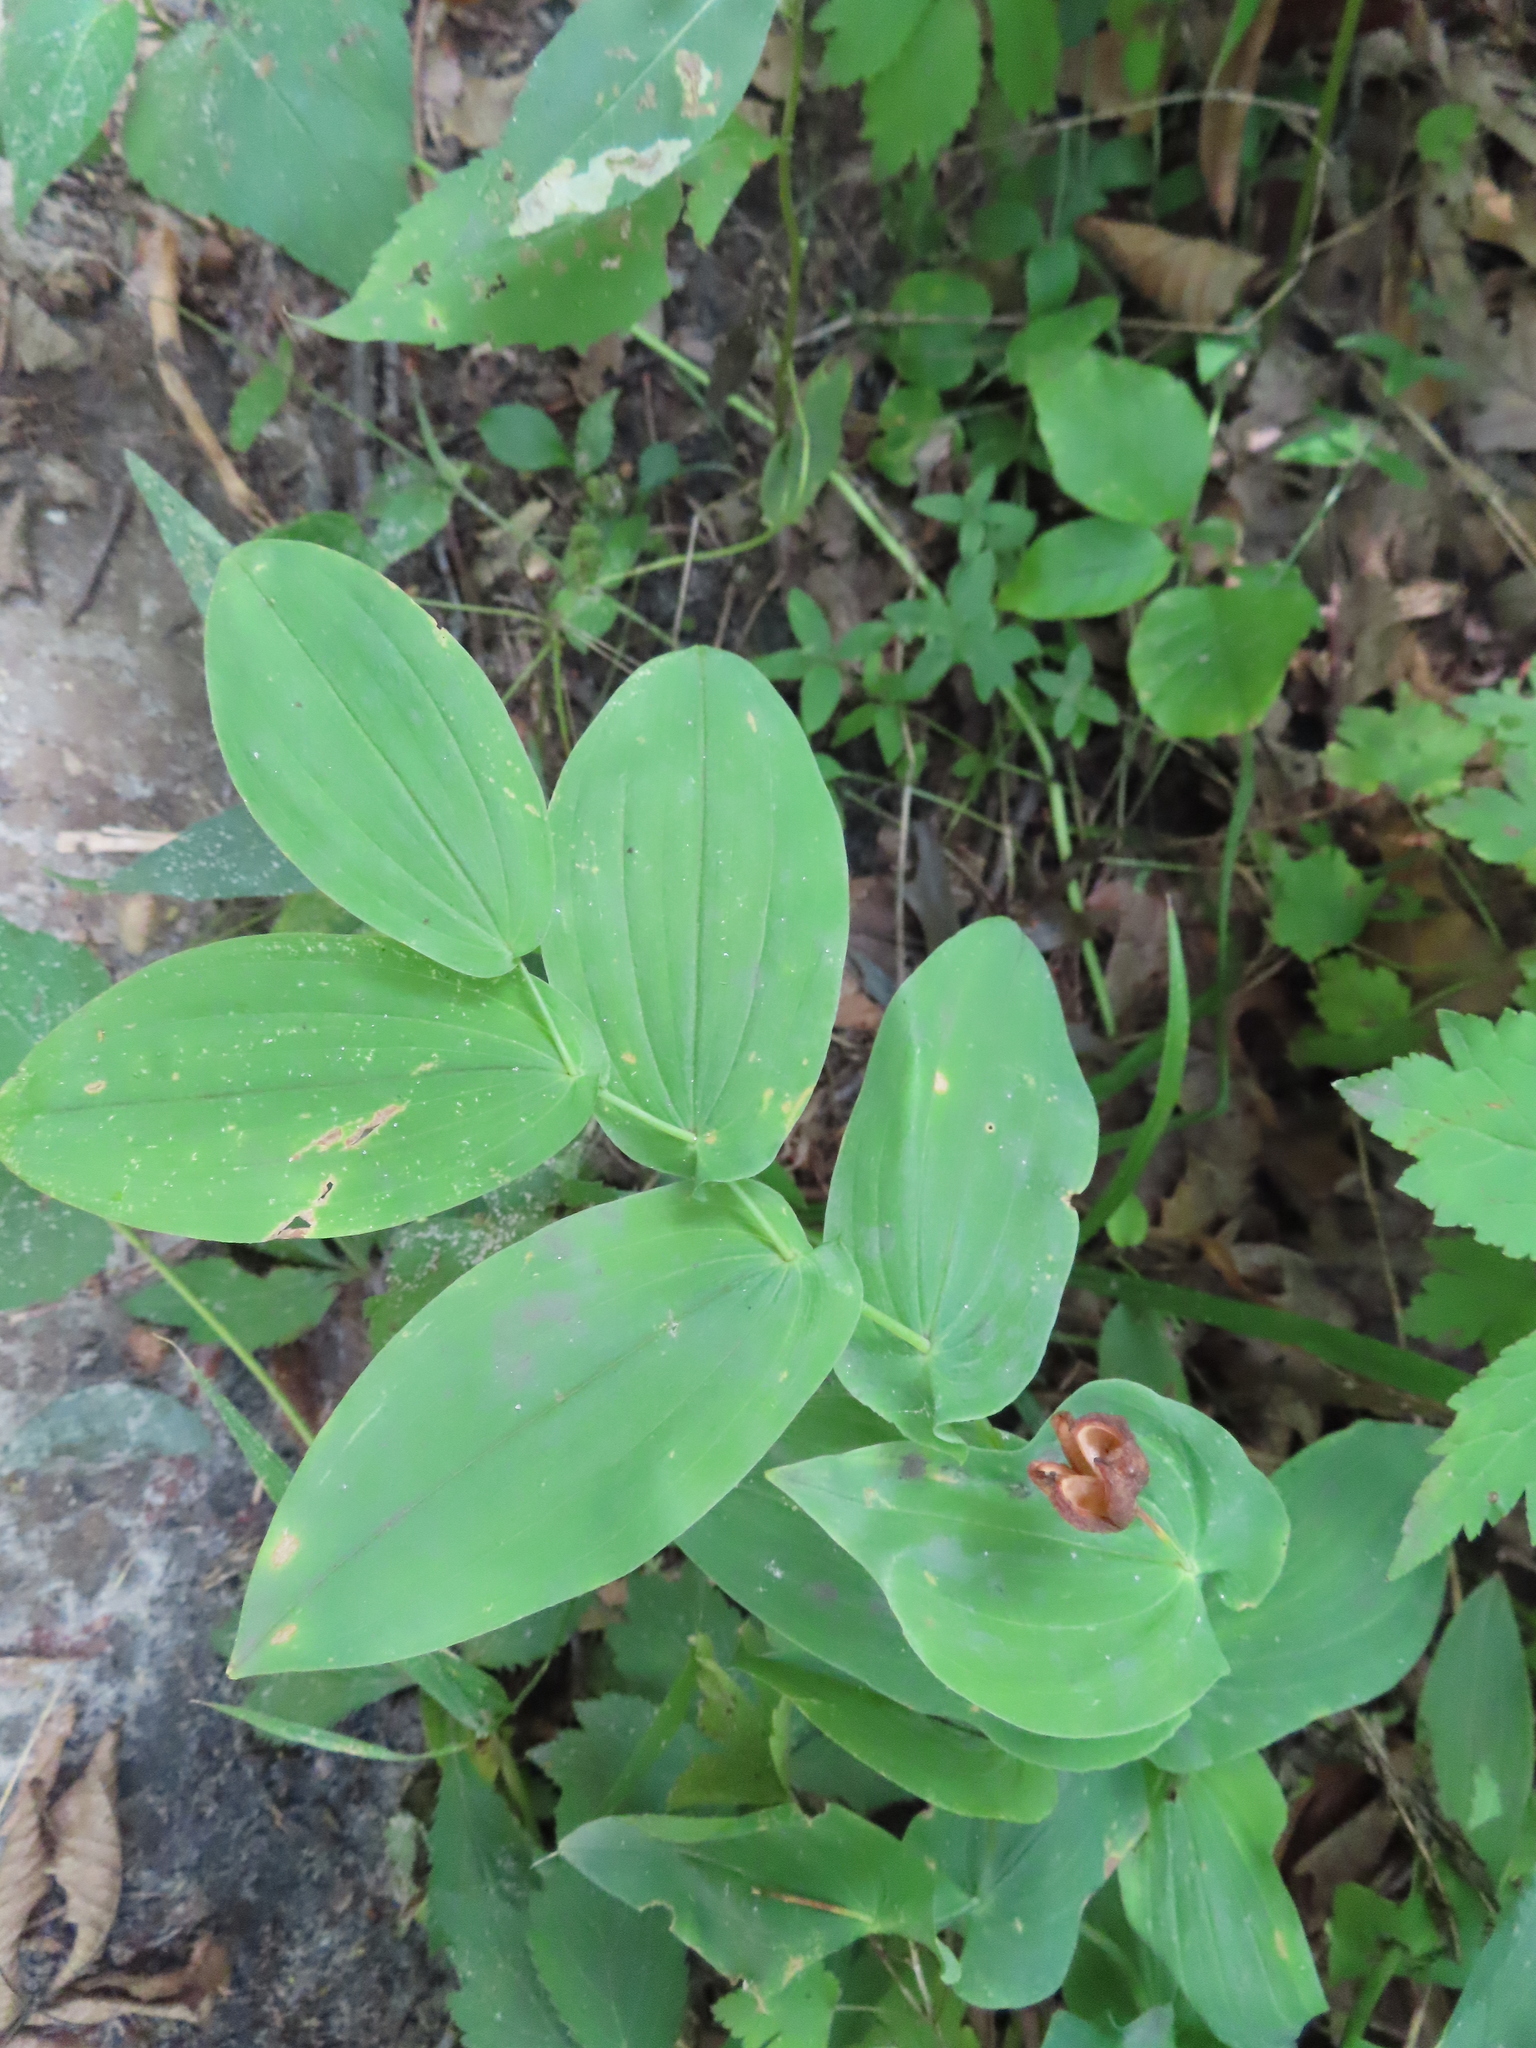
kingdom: Plantae
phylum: Tracheophyta
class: Liliopsida
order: Liliales
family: Colchicaceae
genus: Uvularia
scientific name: Uvularia grandiflora
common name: Bellwort
